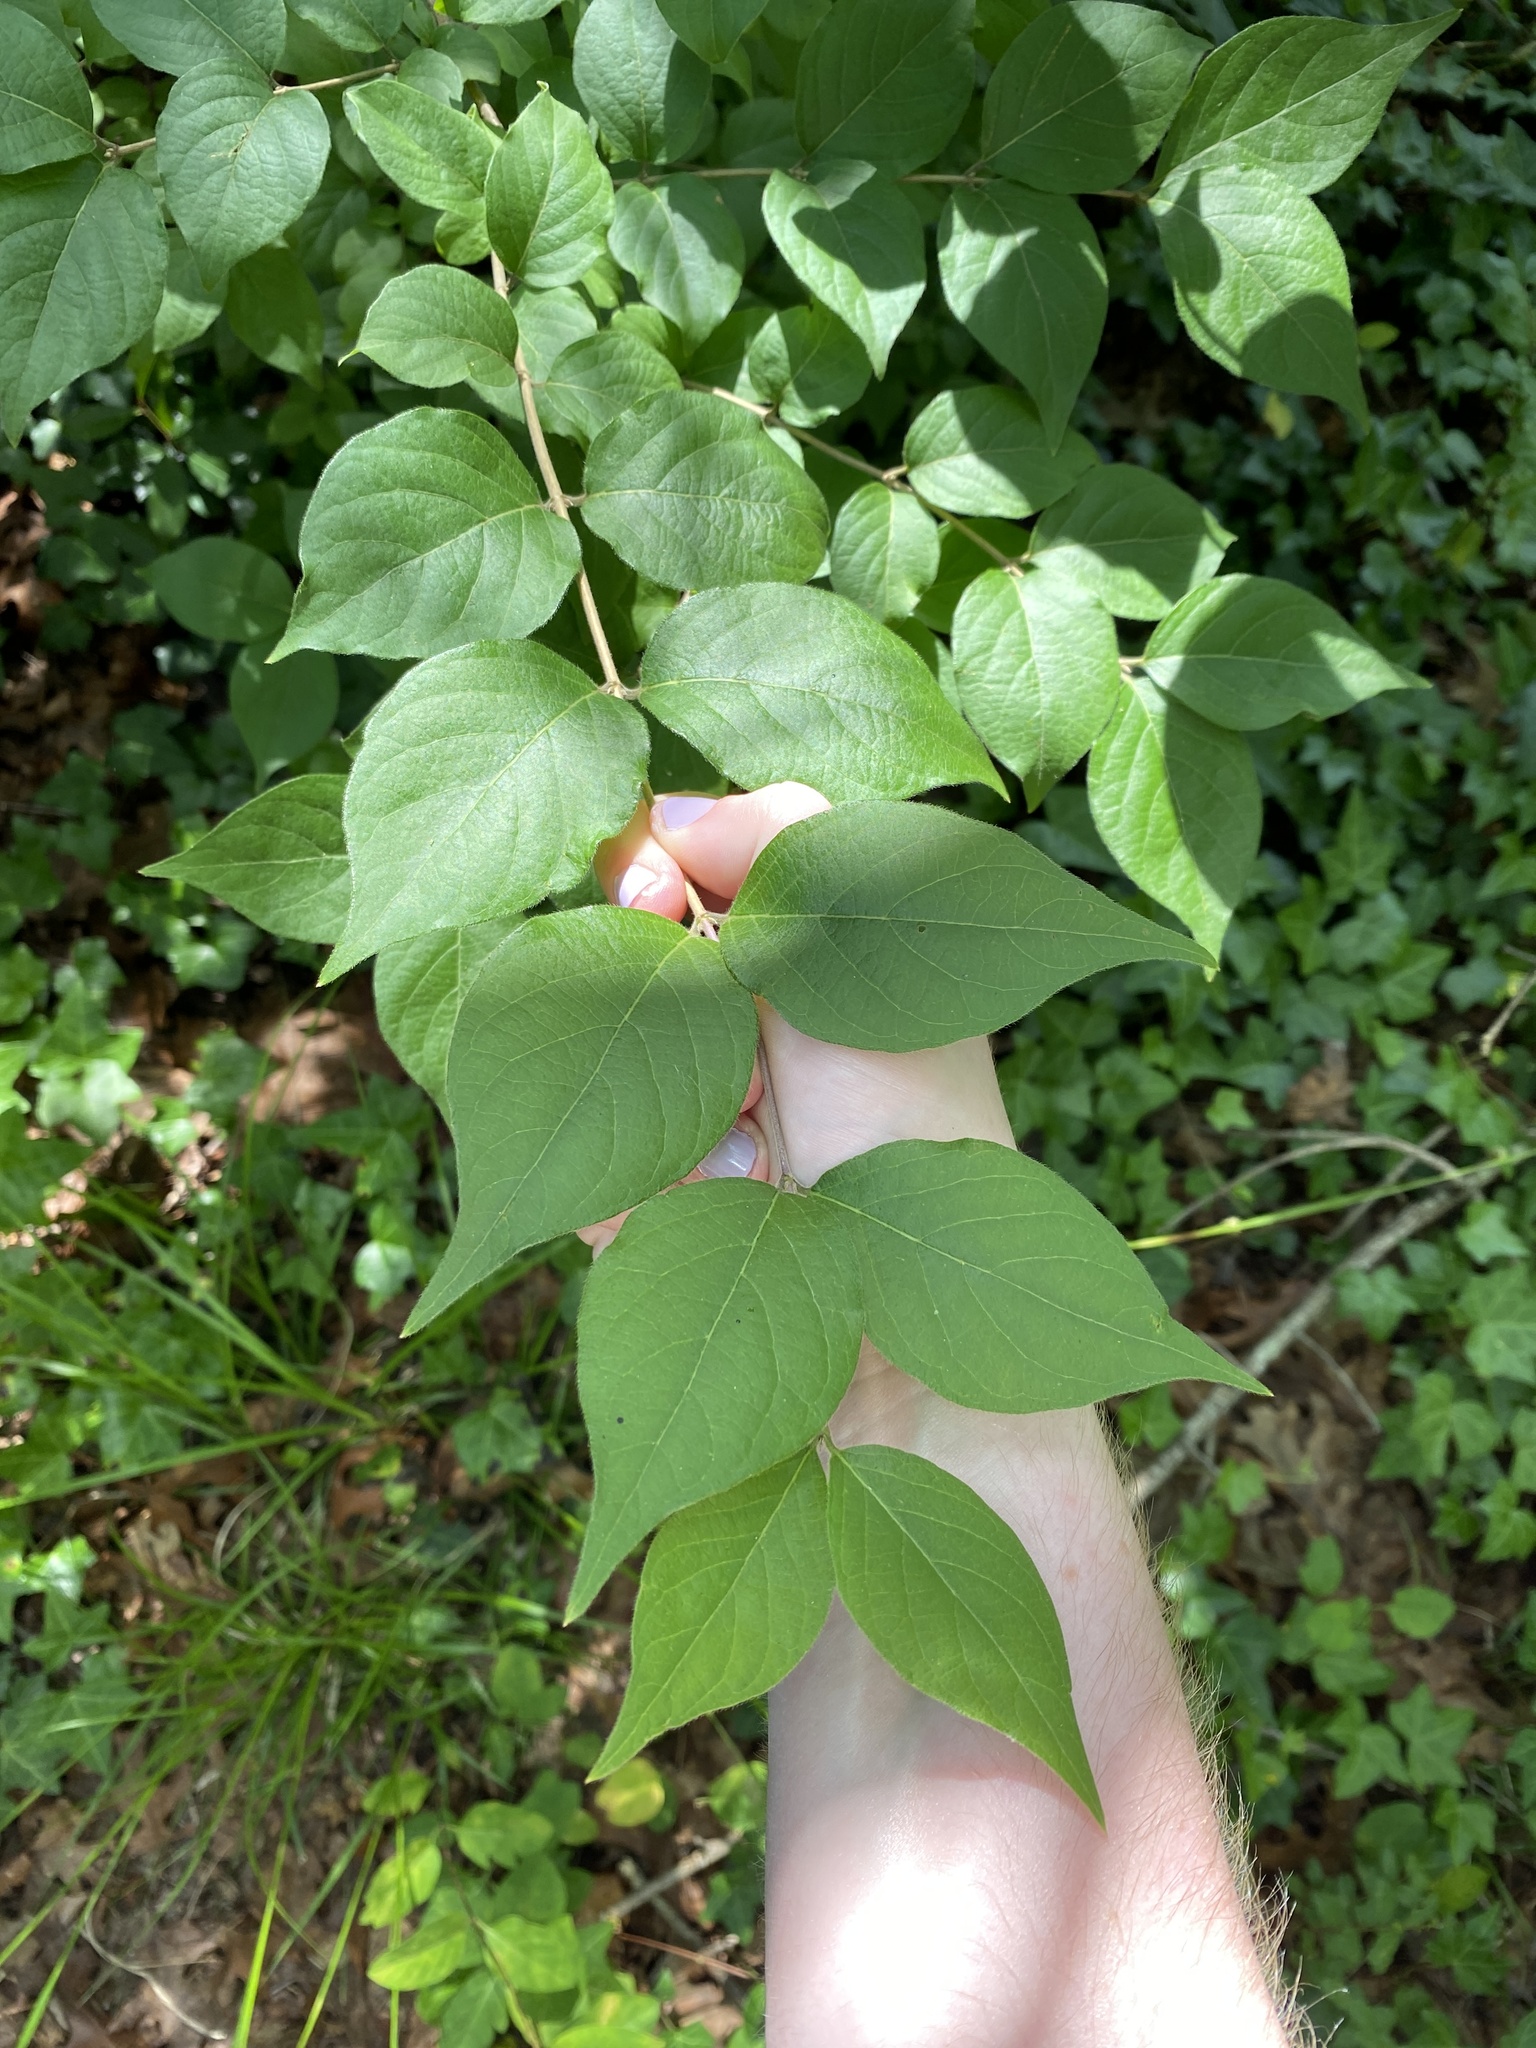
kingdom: Plantae
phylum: Tracheophyta
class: Magnoliopsida
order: Dipsacales
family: Caprifoliaceae
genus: Lonicera
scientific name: Lonicera maackii
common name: Amur honeysuckle
